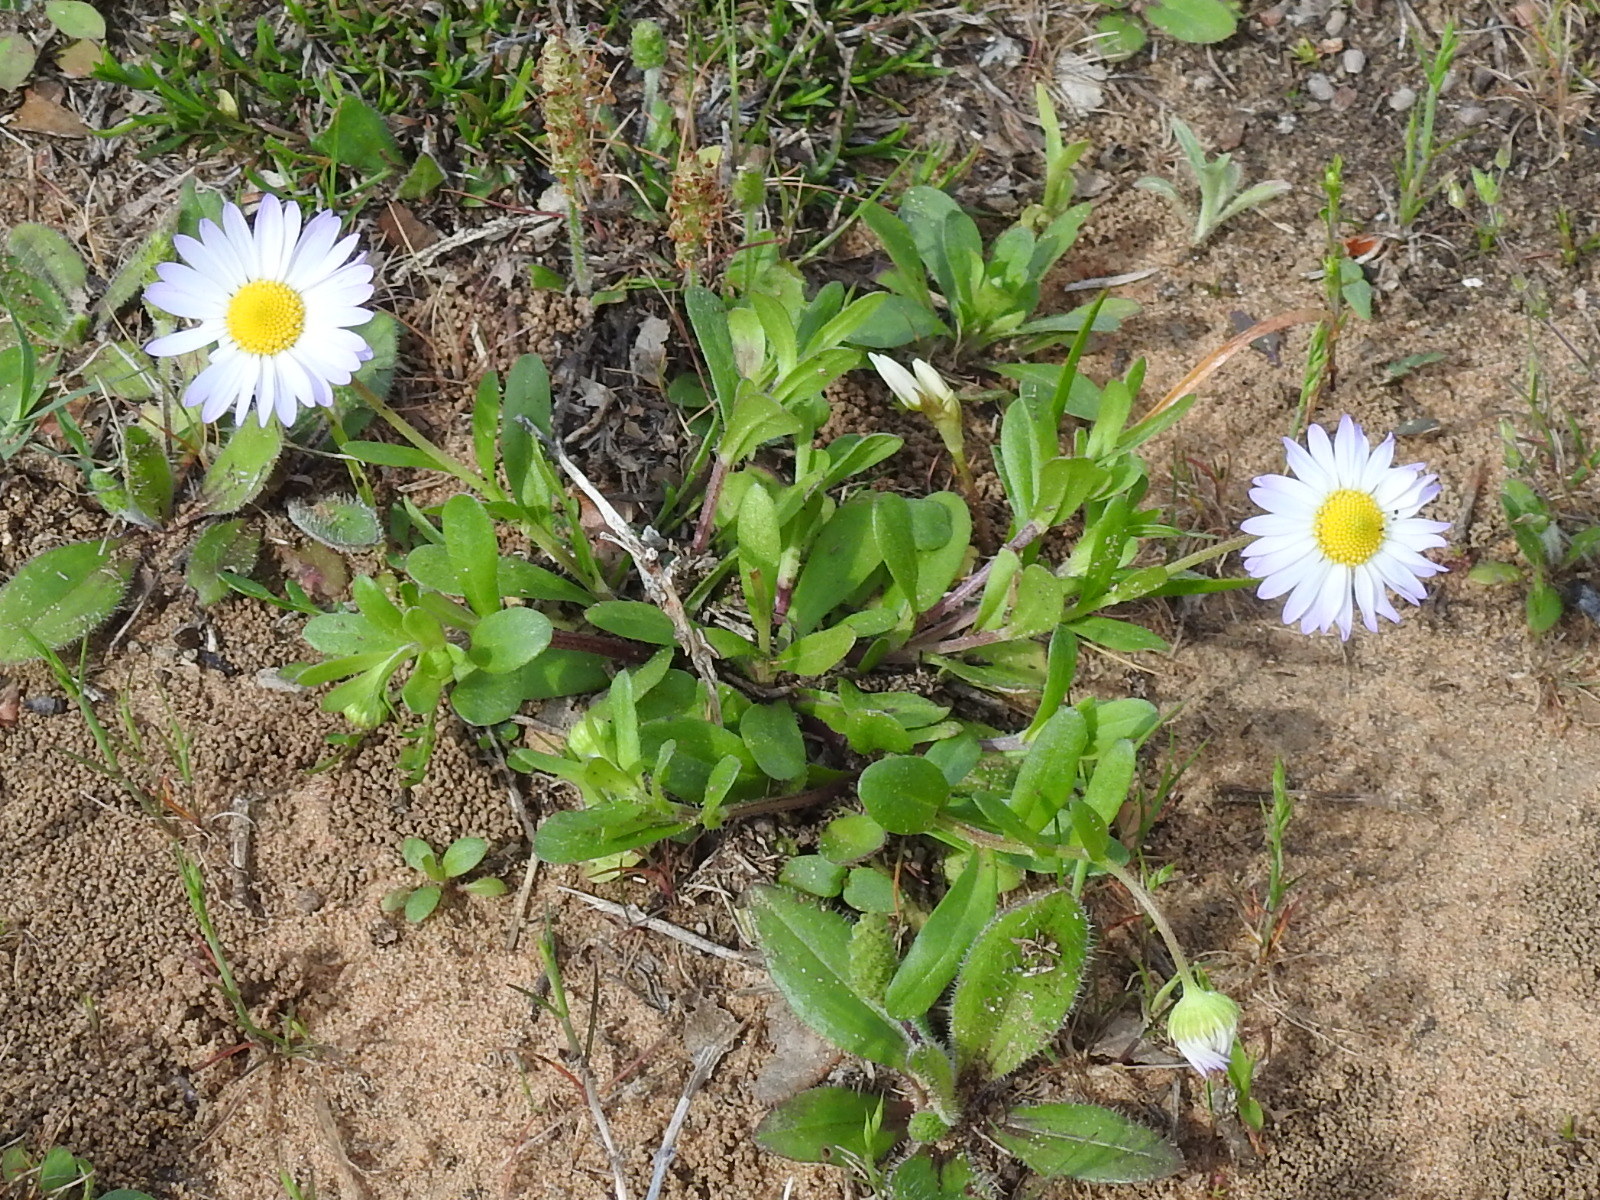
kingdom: Plantae
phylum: Tracheophyta
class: Magnoliopsida
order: Asterales
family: Asteraceae
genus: Astranthium
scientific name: Astranthium ciliatum
